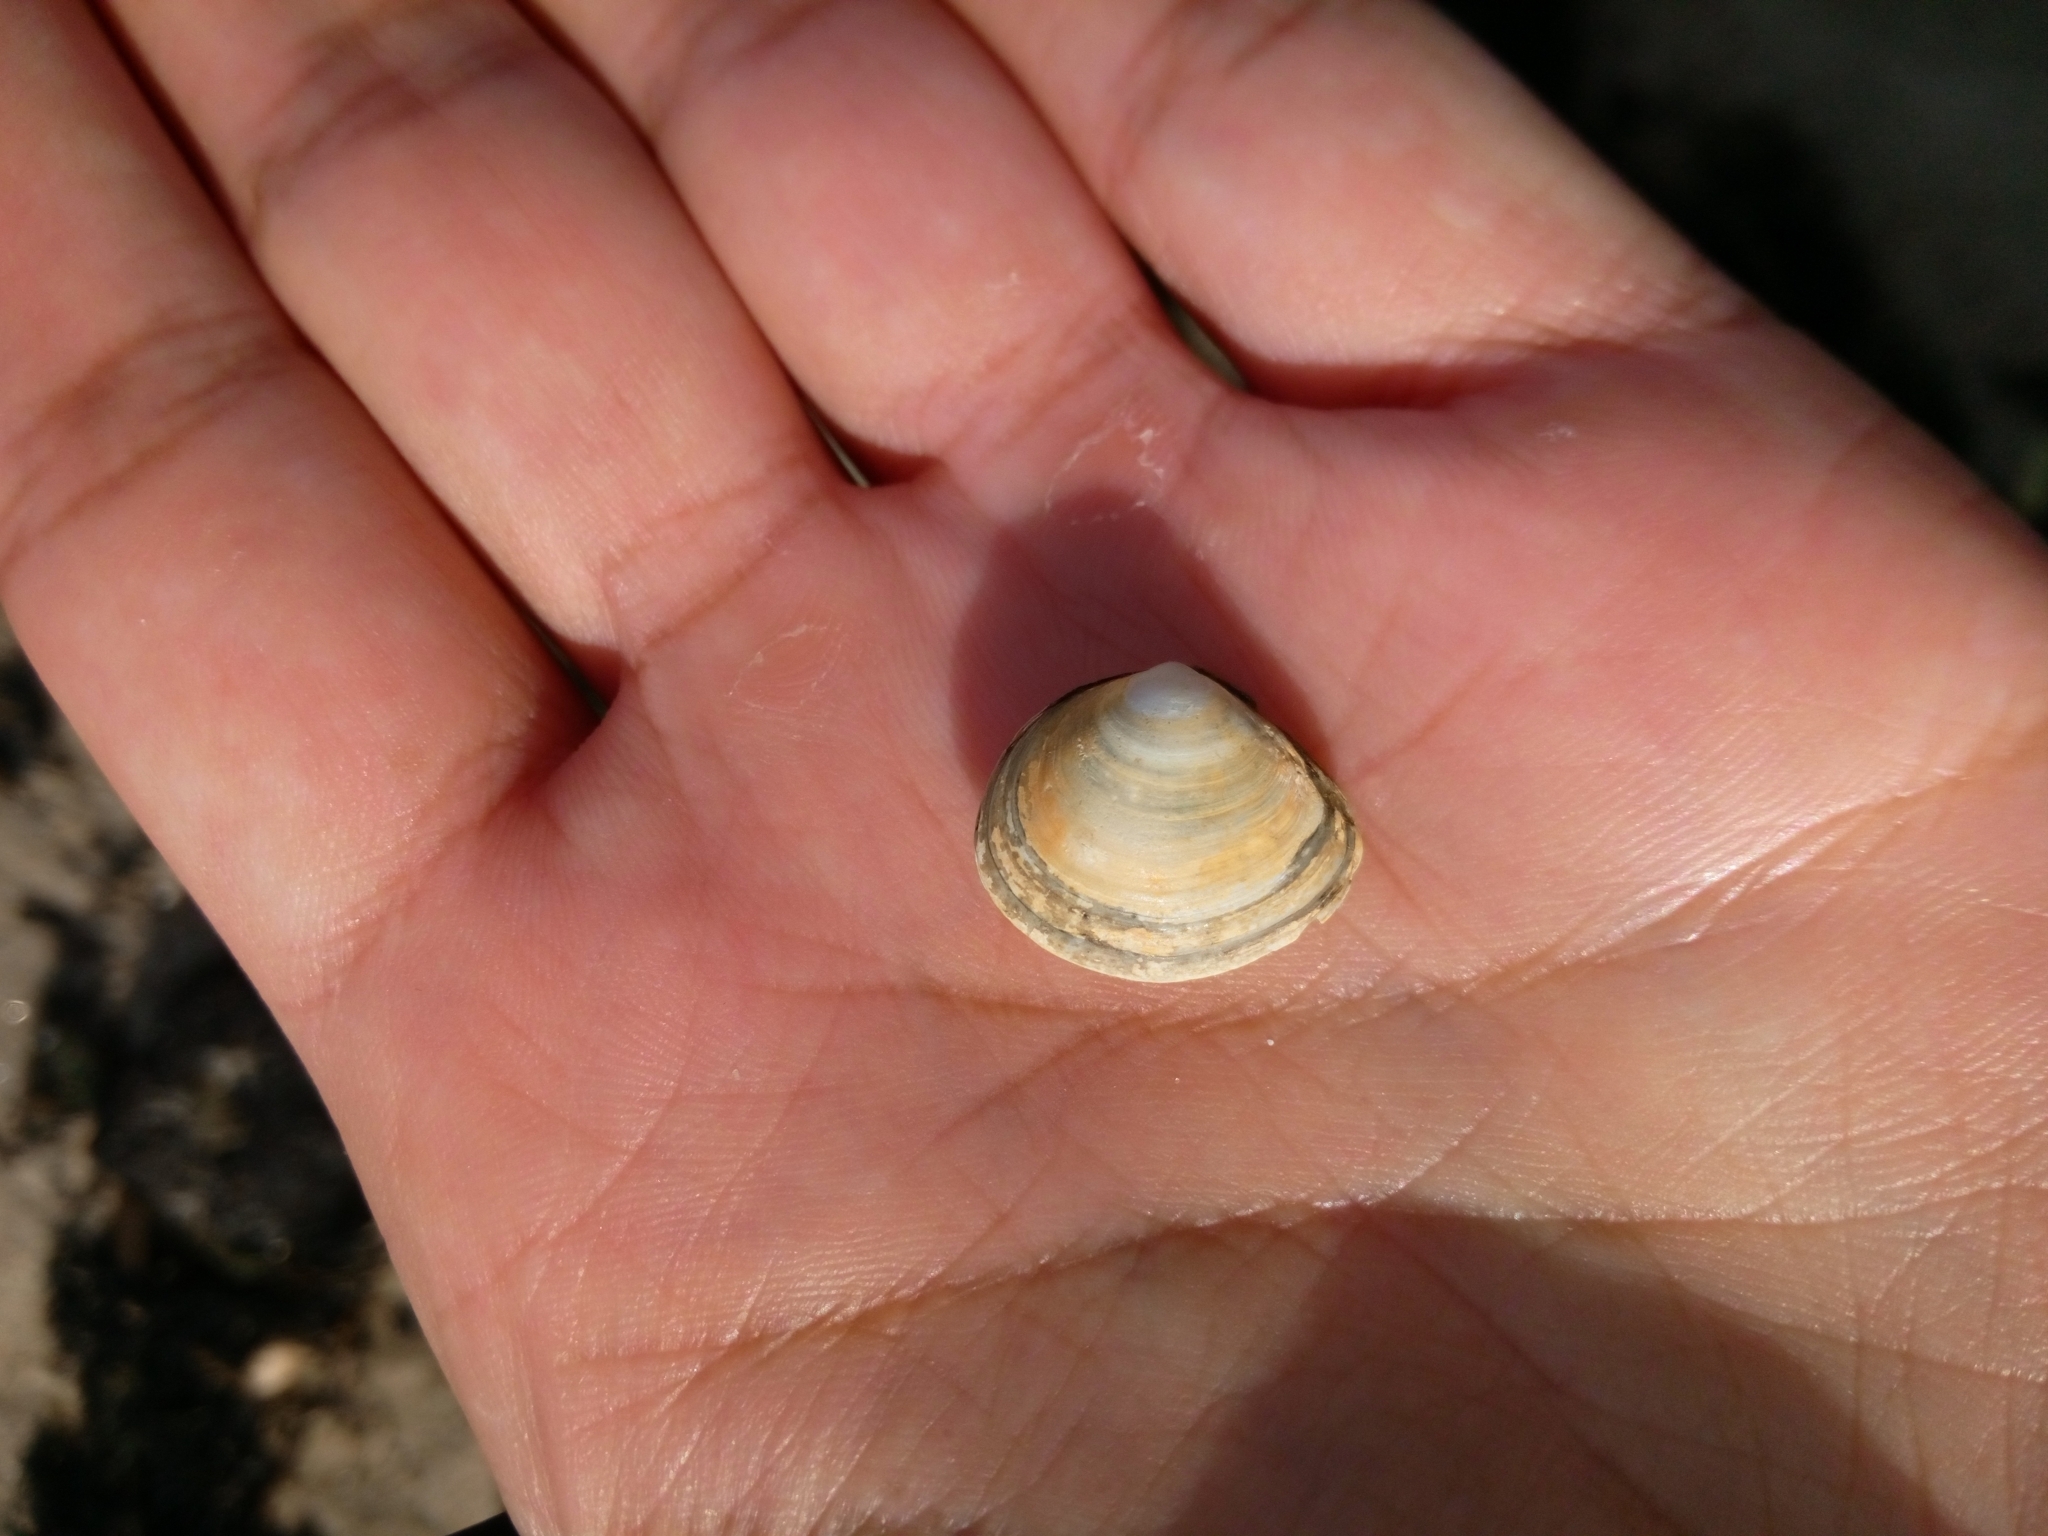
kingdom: Animalia
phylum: Mollusca
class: Bivalvia
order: Cardiida
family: Tellinidae
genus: Macoma
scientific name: Macoma balthica
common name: Baltic tellin
